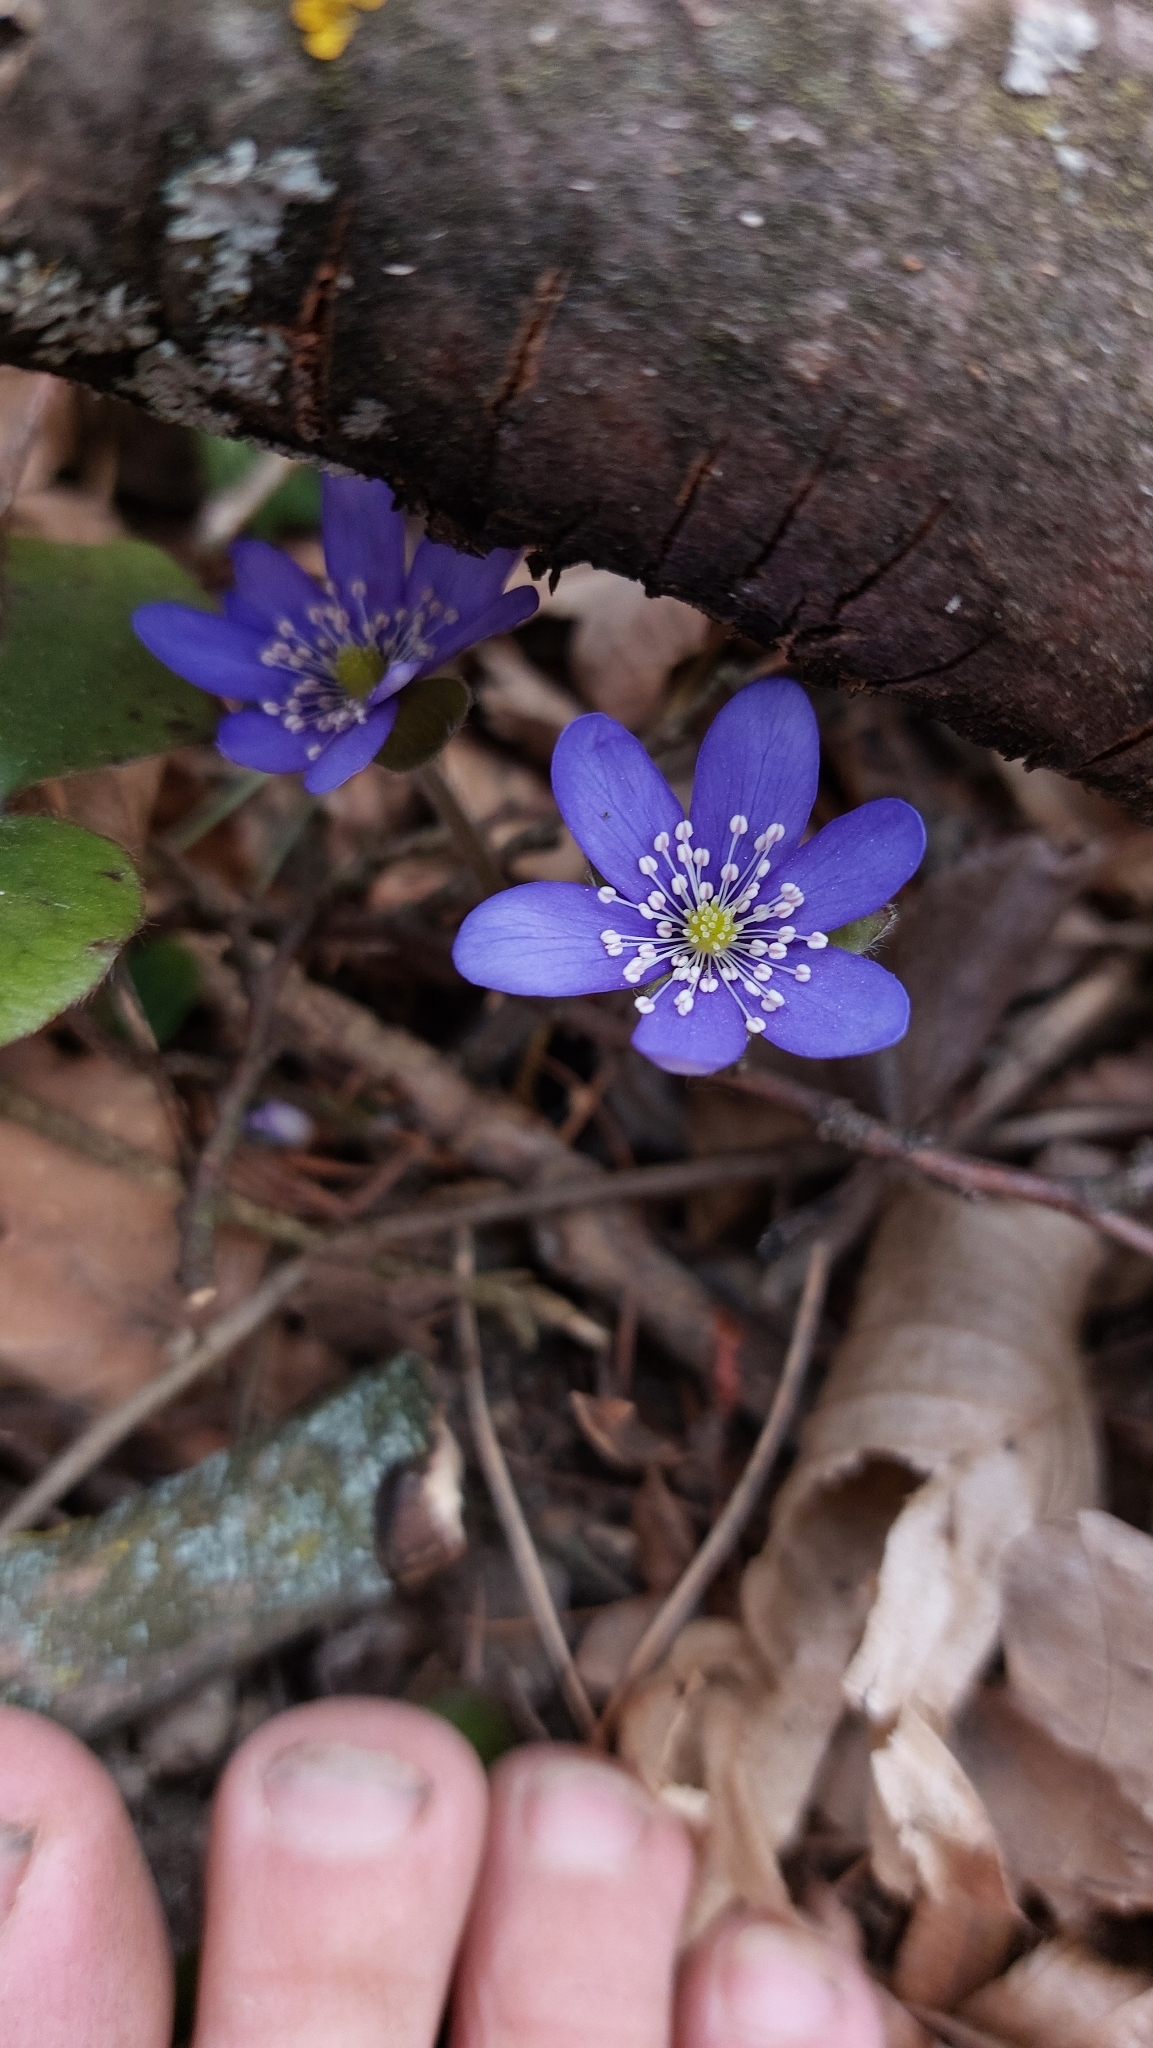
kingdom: Plantae
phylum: Tracheophyta
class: Magnoliopsida
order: Ranunculales
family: Ranunculaceae
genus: Hepatica
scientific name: Hepatica nobilis
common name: Liverleaf
